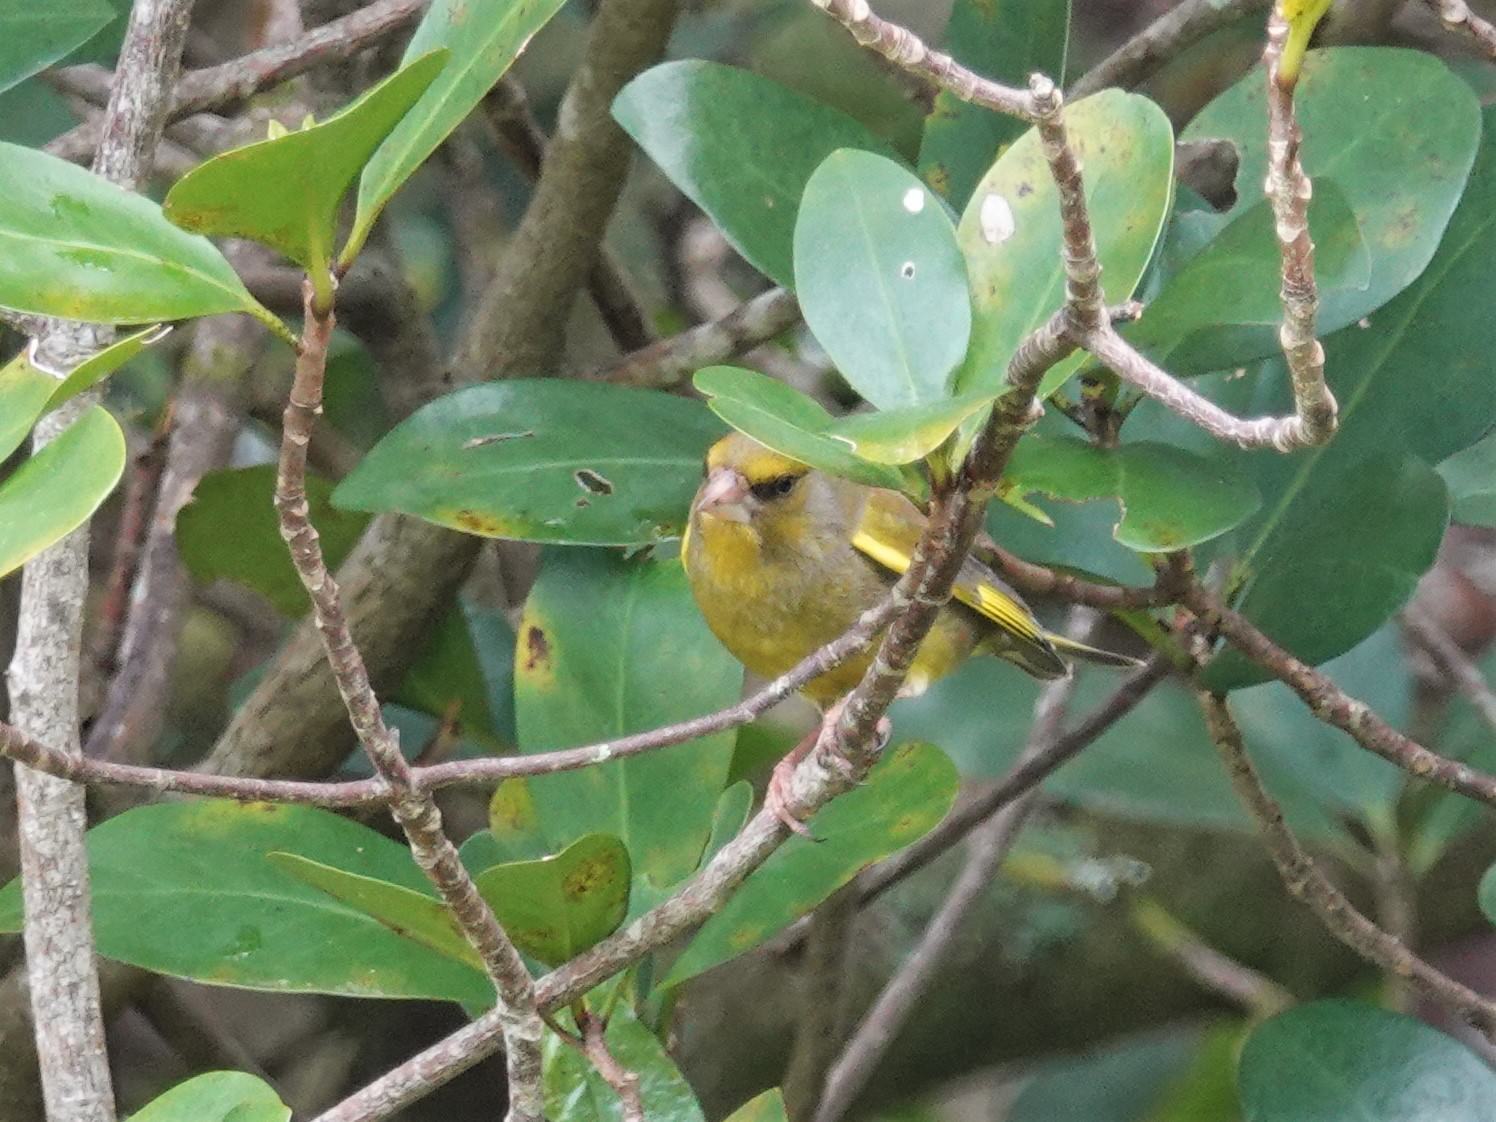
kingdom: Plantae
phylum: Tracheophyta
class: Liliopsida
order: Poales
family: Poaceae
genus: Chloris
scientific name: Chloris chloris
